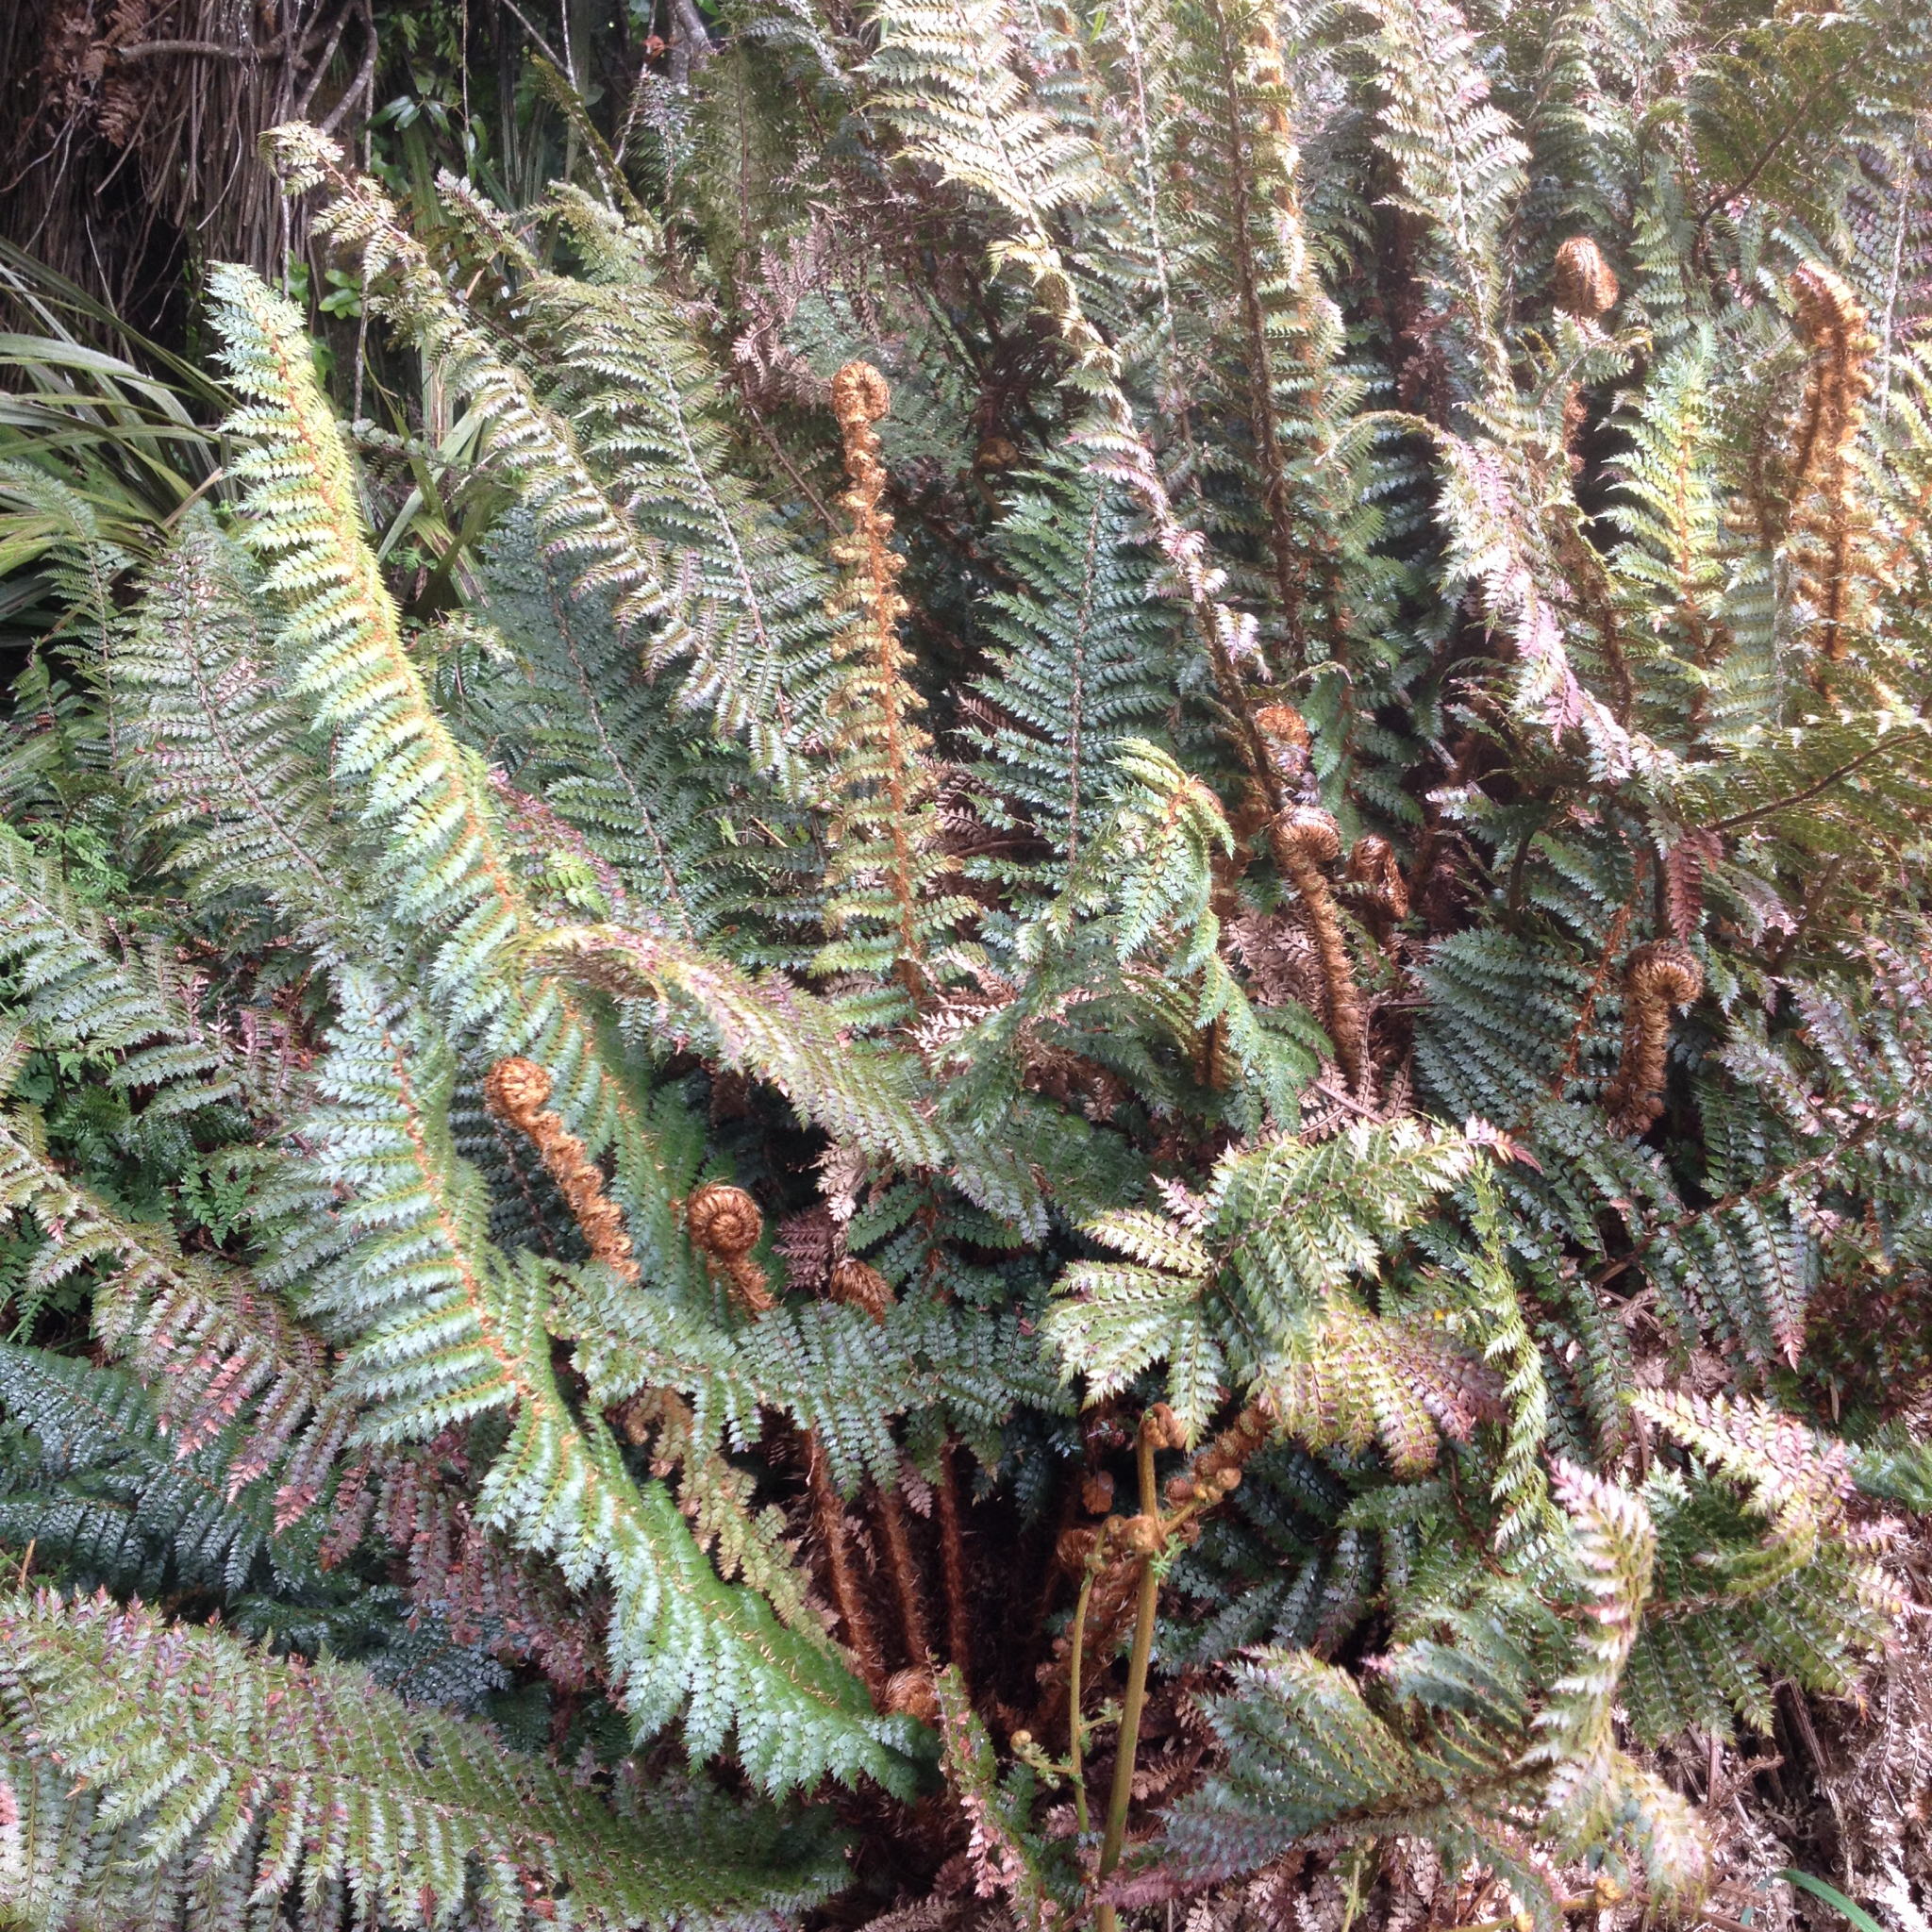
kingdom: Plantae
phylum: Tracheophyta
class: Polypodiopsida
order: Polypodiales
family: Dryopteridaceae
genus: Polystichum
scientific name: Polystichum vestitum
